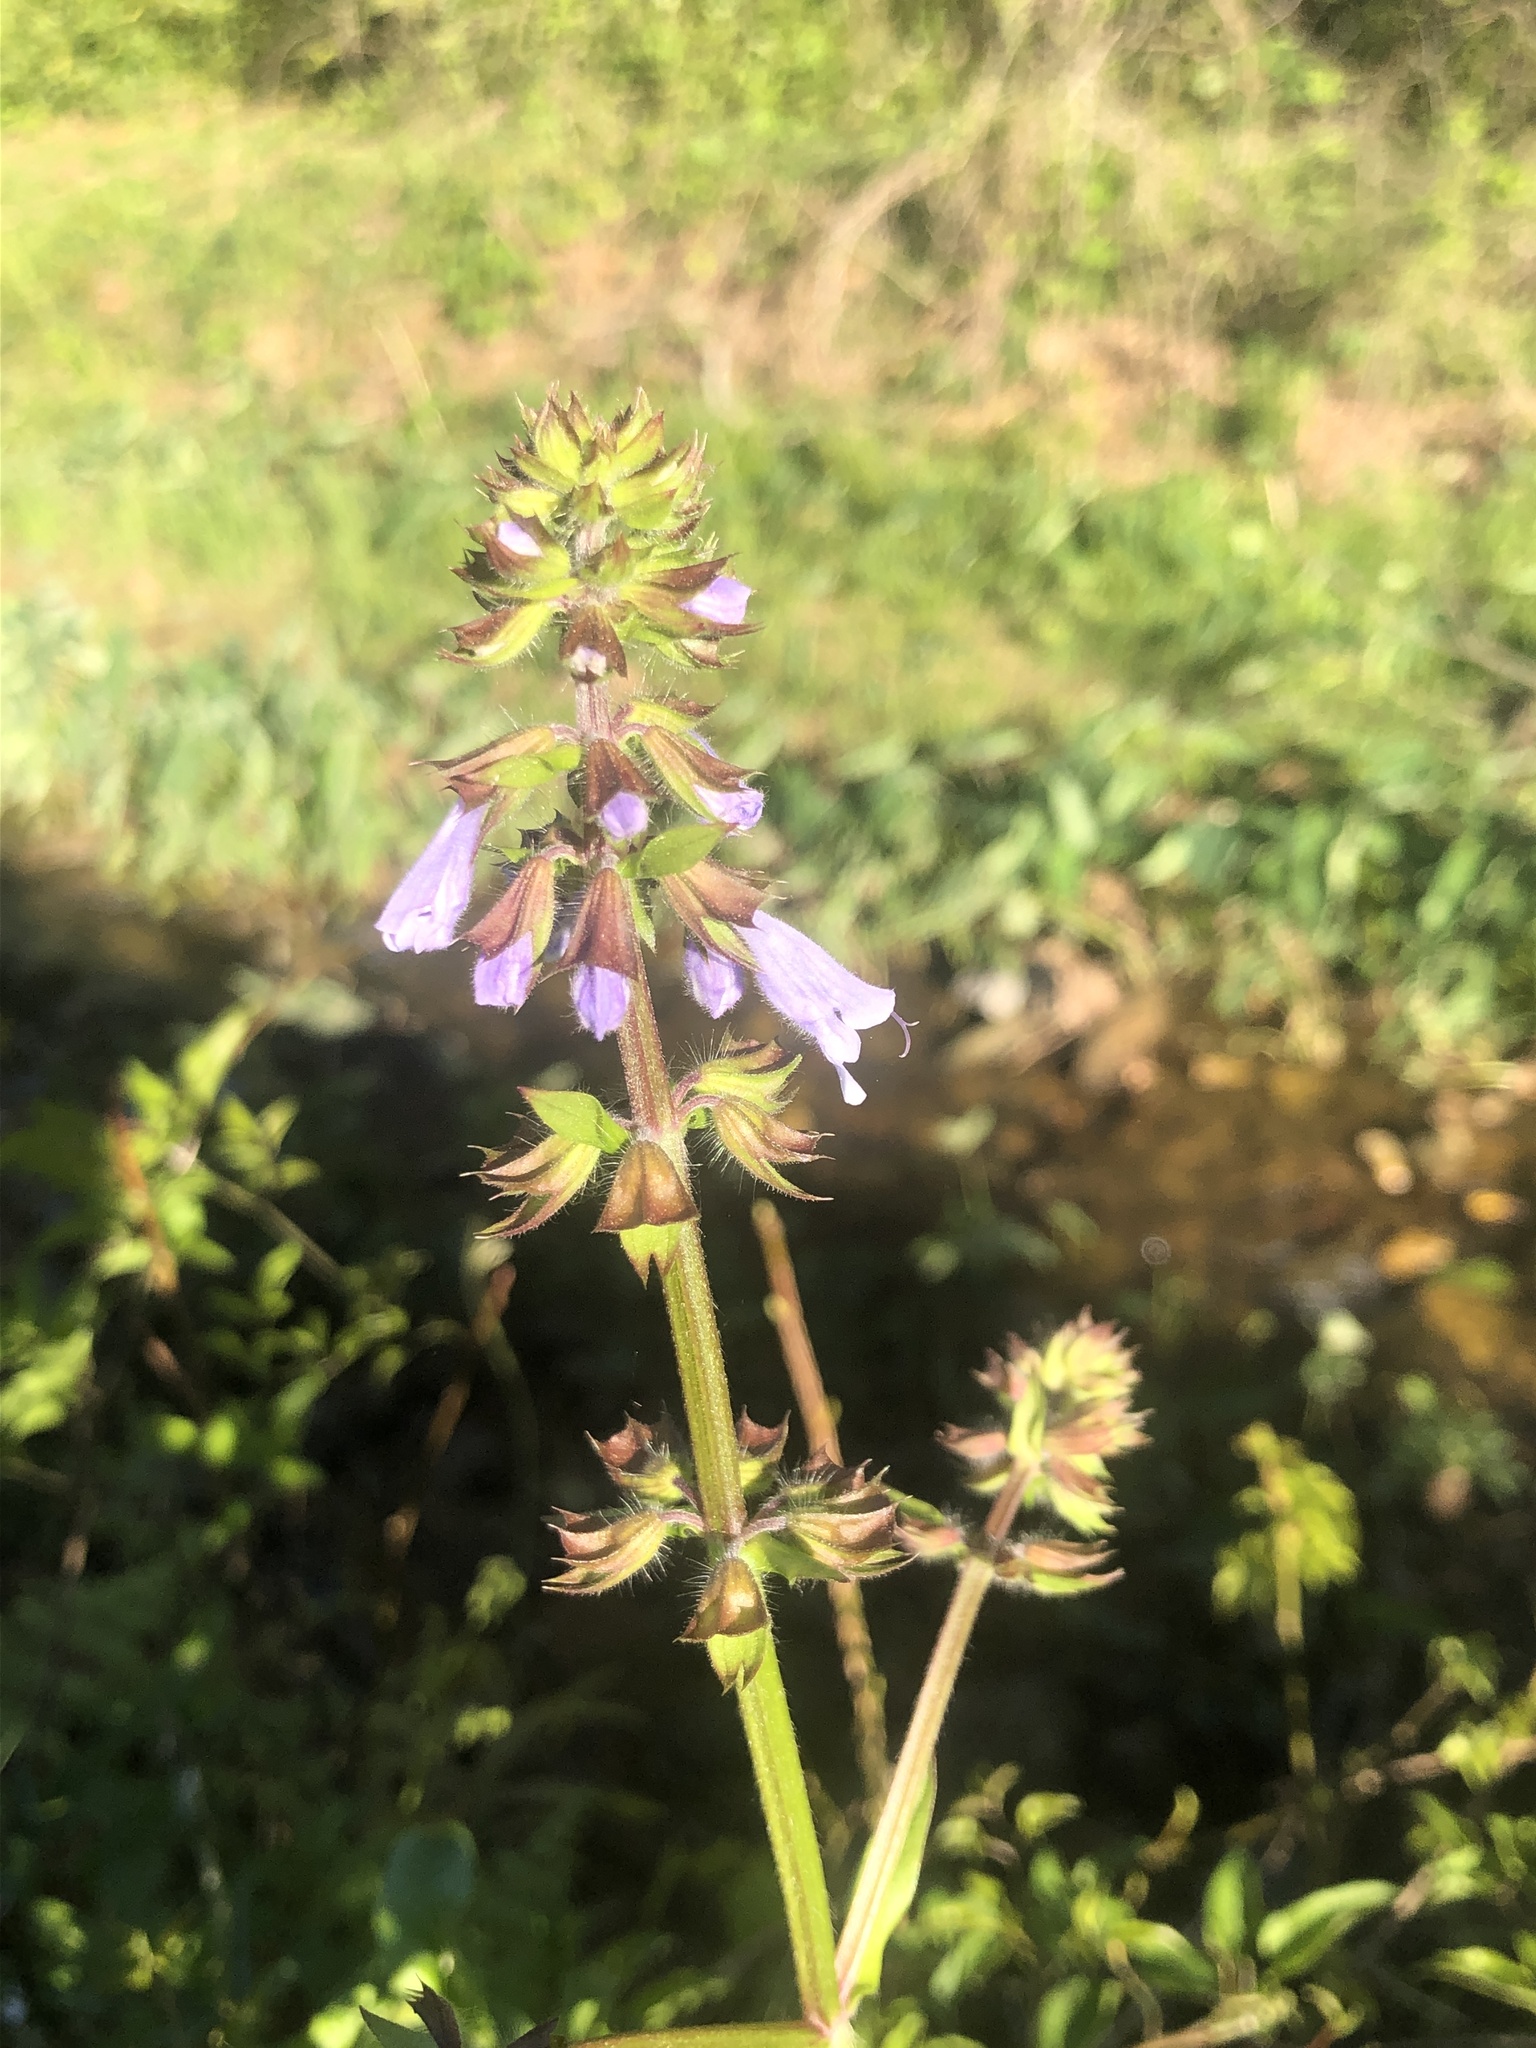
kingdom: Plantae
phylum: Tracheophyta
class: Magnoliopsida
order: Lamiales
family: Lamiaceae
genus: Salvia
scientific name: Salvia lyrata
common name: Cancerweed
